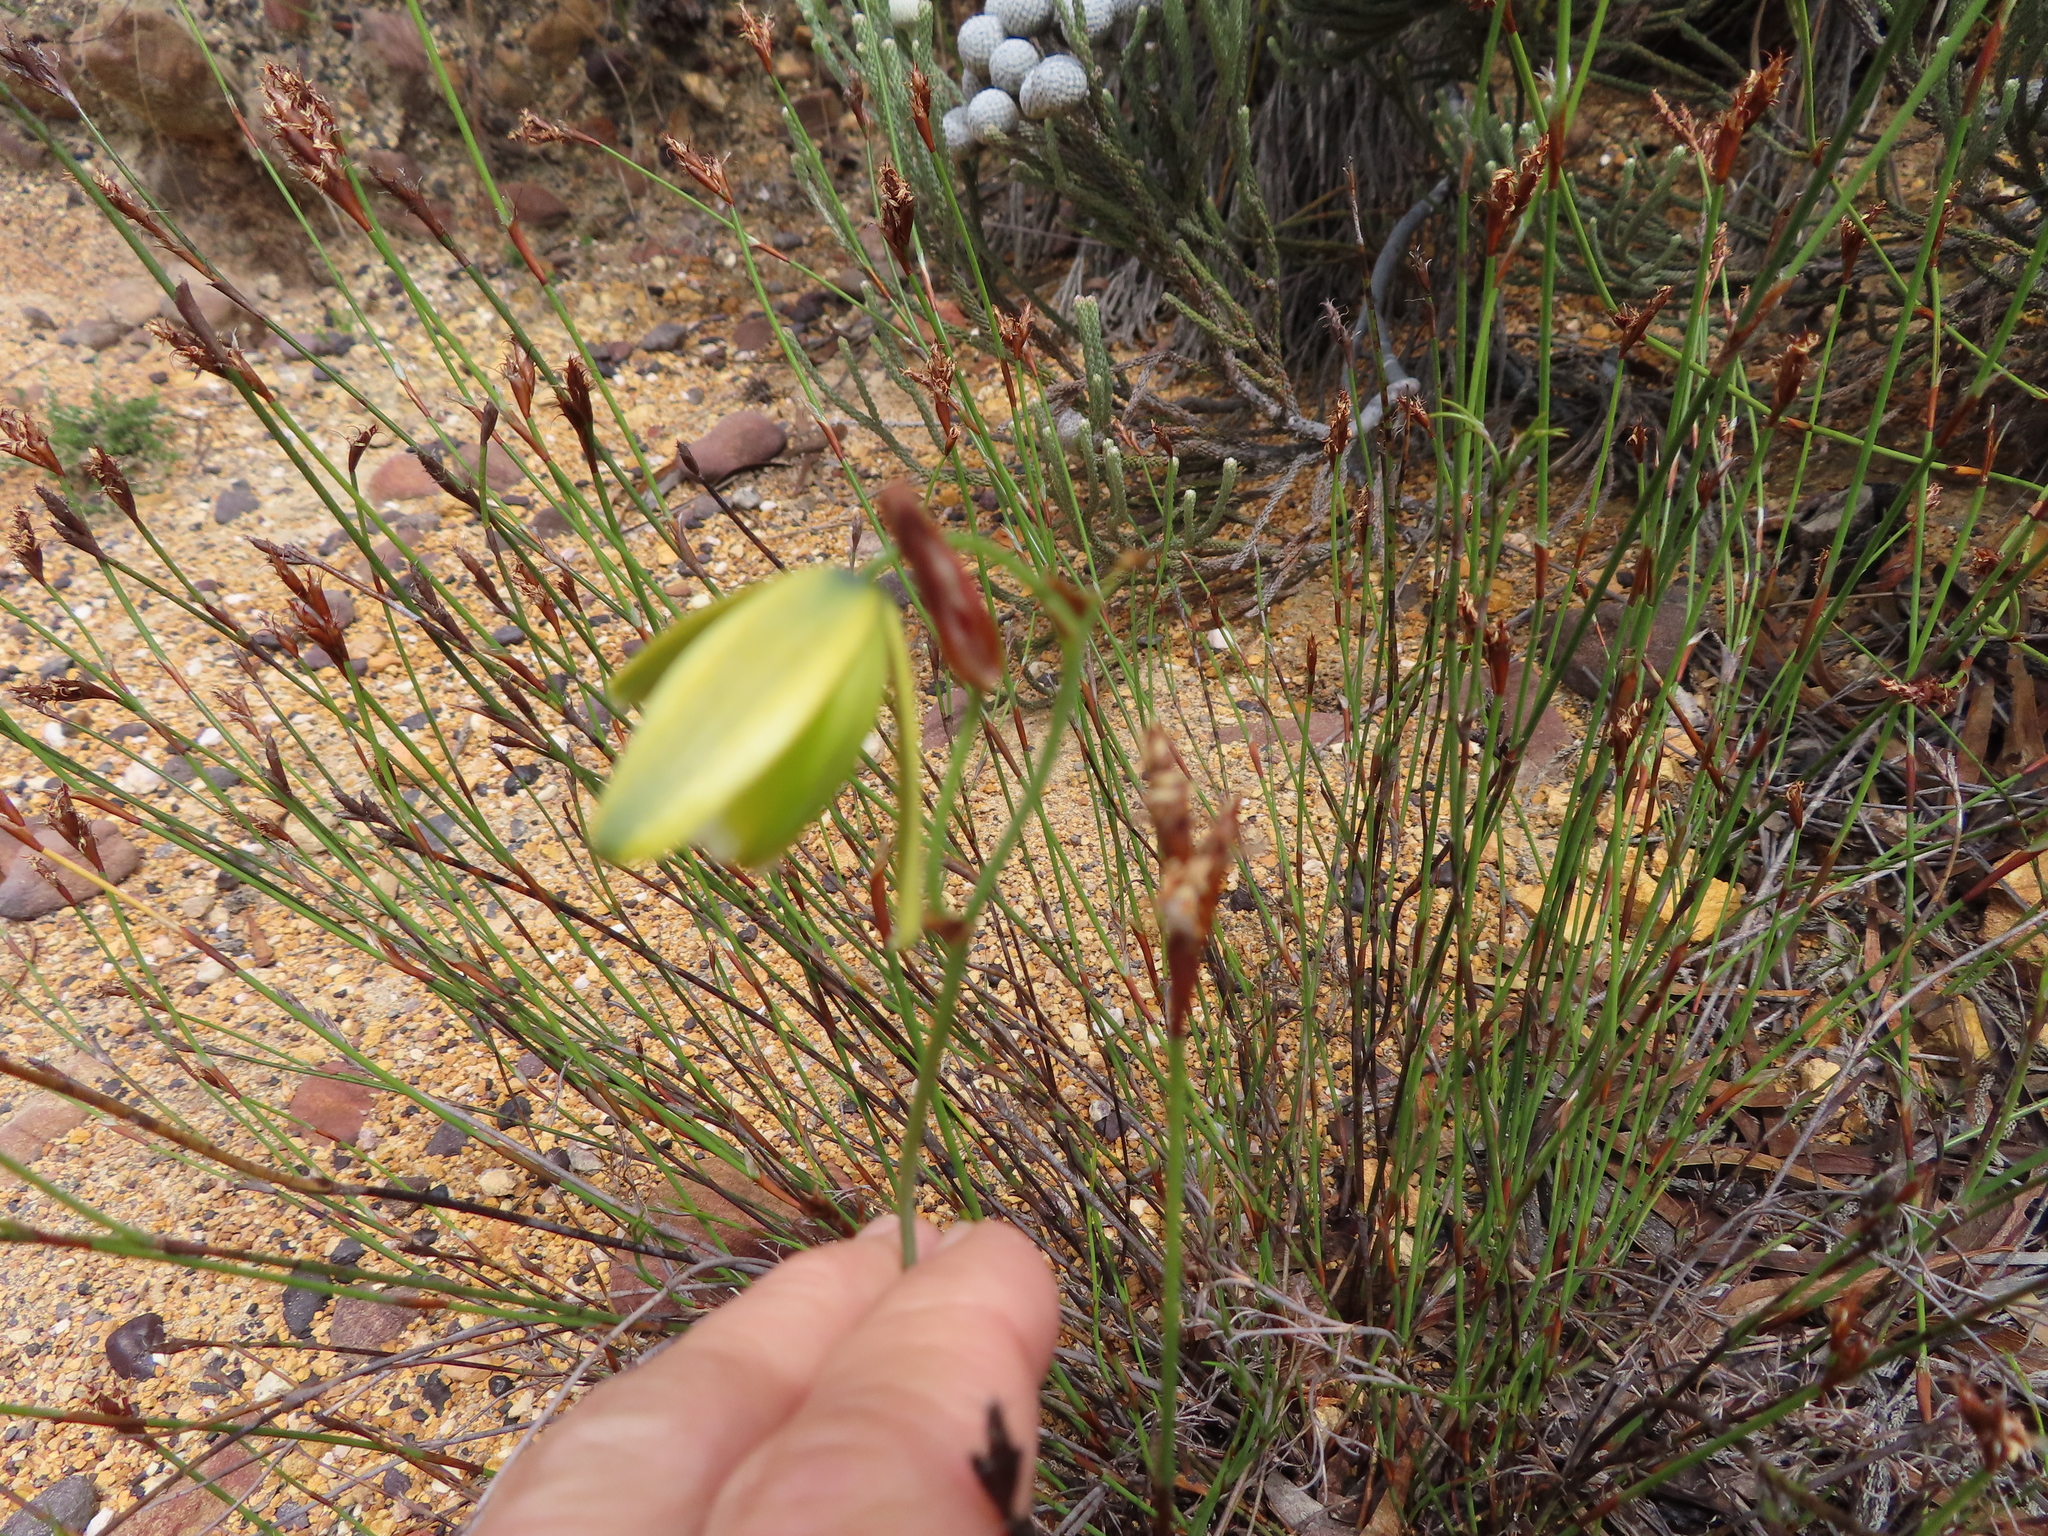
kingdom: Plantae
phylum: Tracheophyta
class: Liliopsida
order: Asparagales
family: Asparagaceae
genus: Albuca
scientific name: Albuca cooperi
